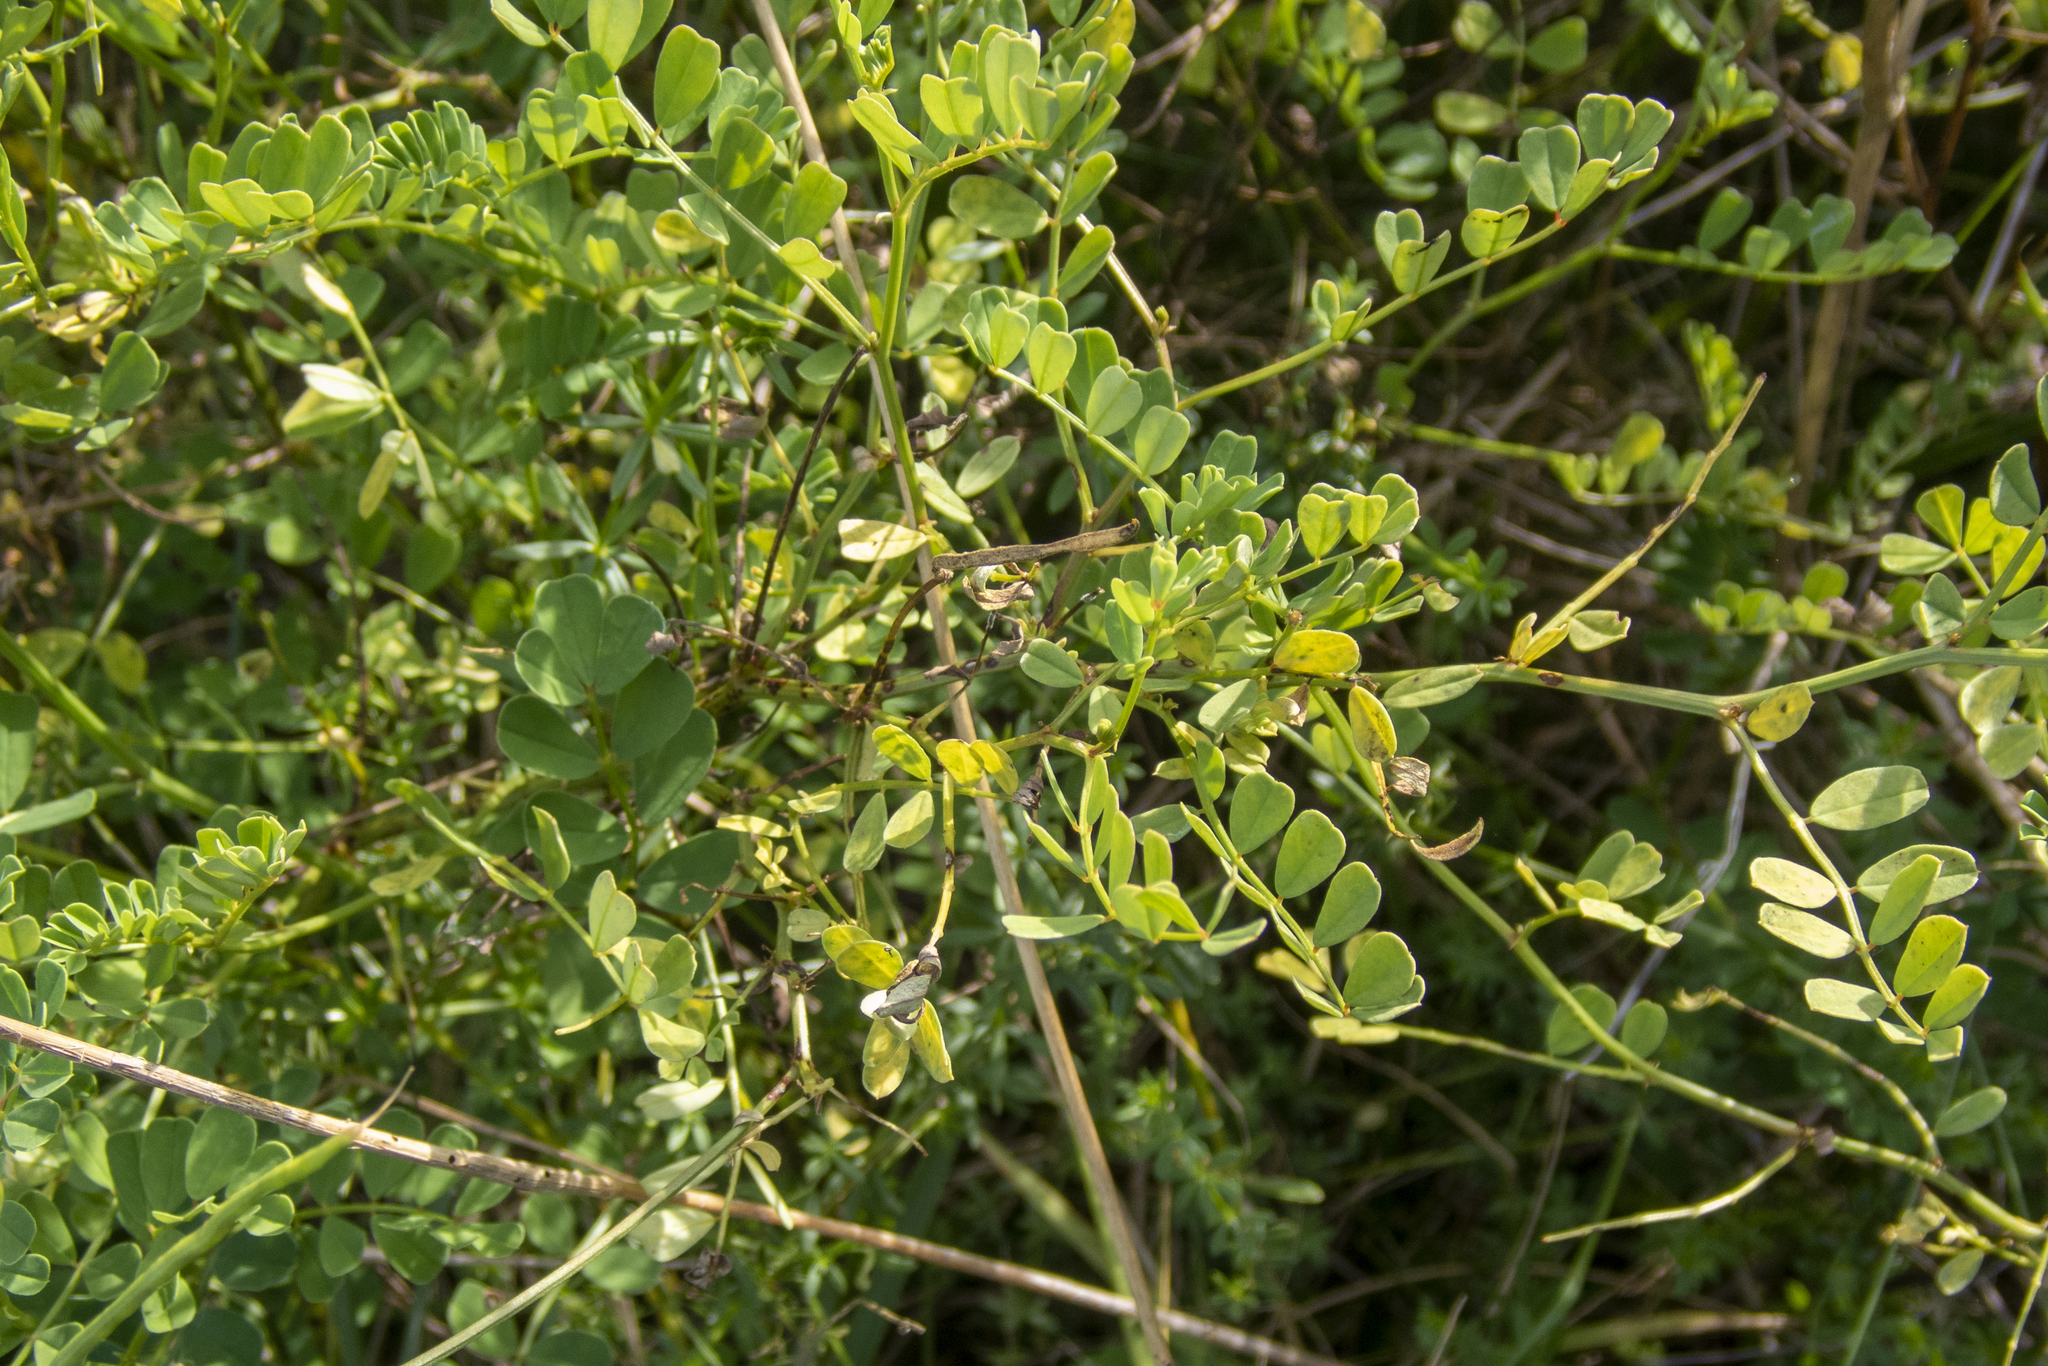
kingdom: Plantae
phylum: Tracheophyta
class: Magnoliopsida
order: Fabales
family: Fabaceae
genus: Coronilla
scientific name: Coronilla varia
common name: Crownvetch
